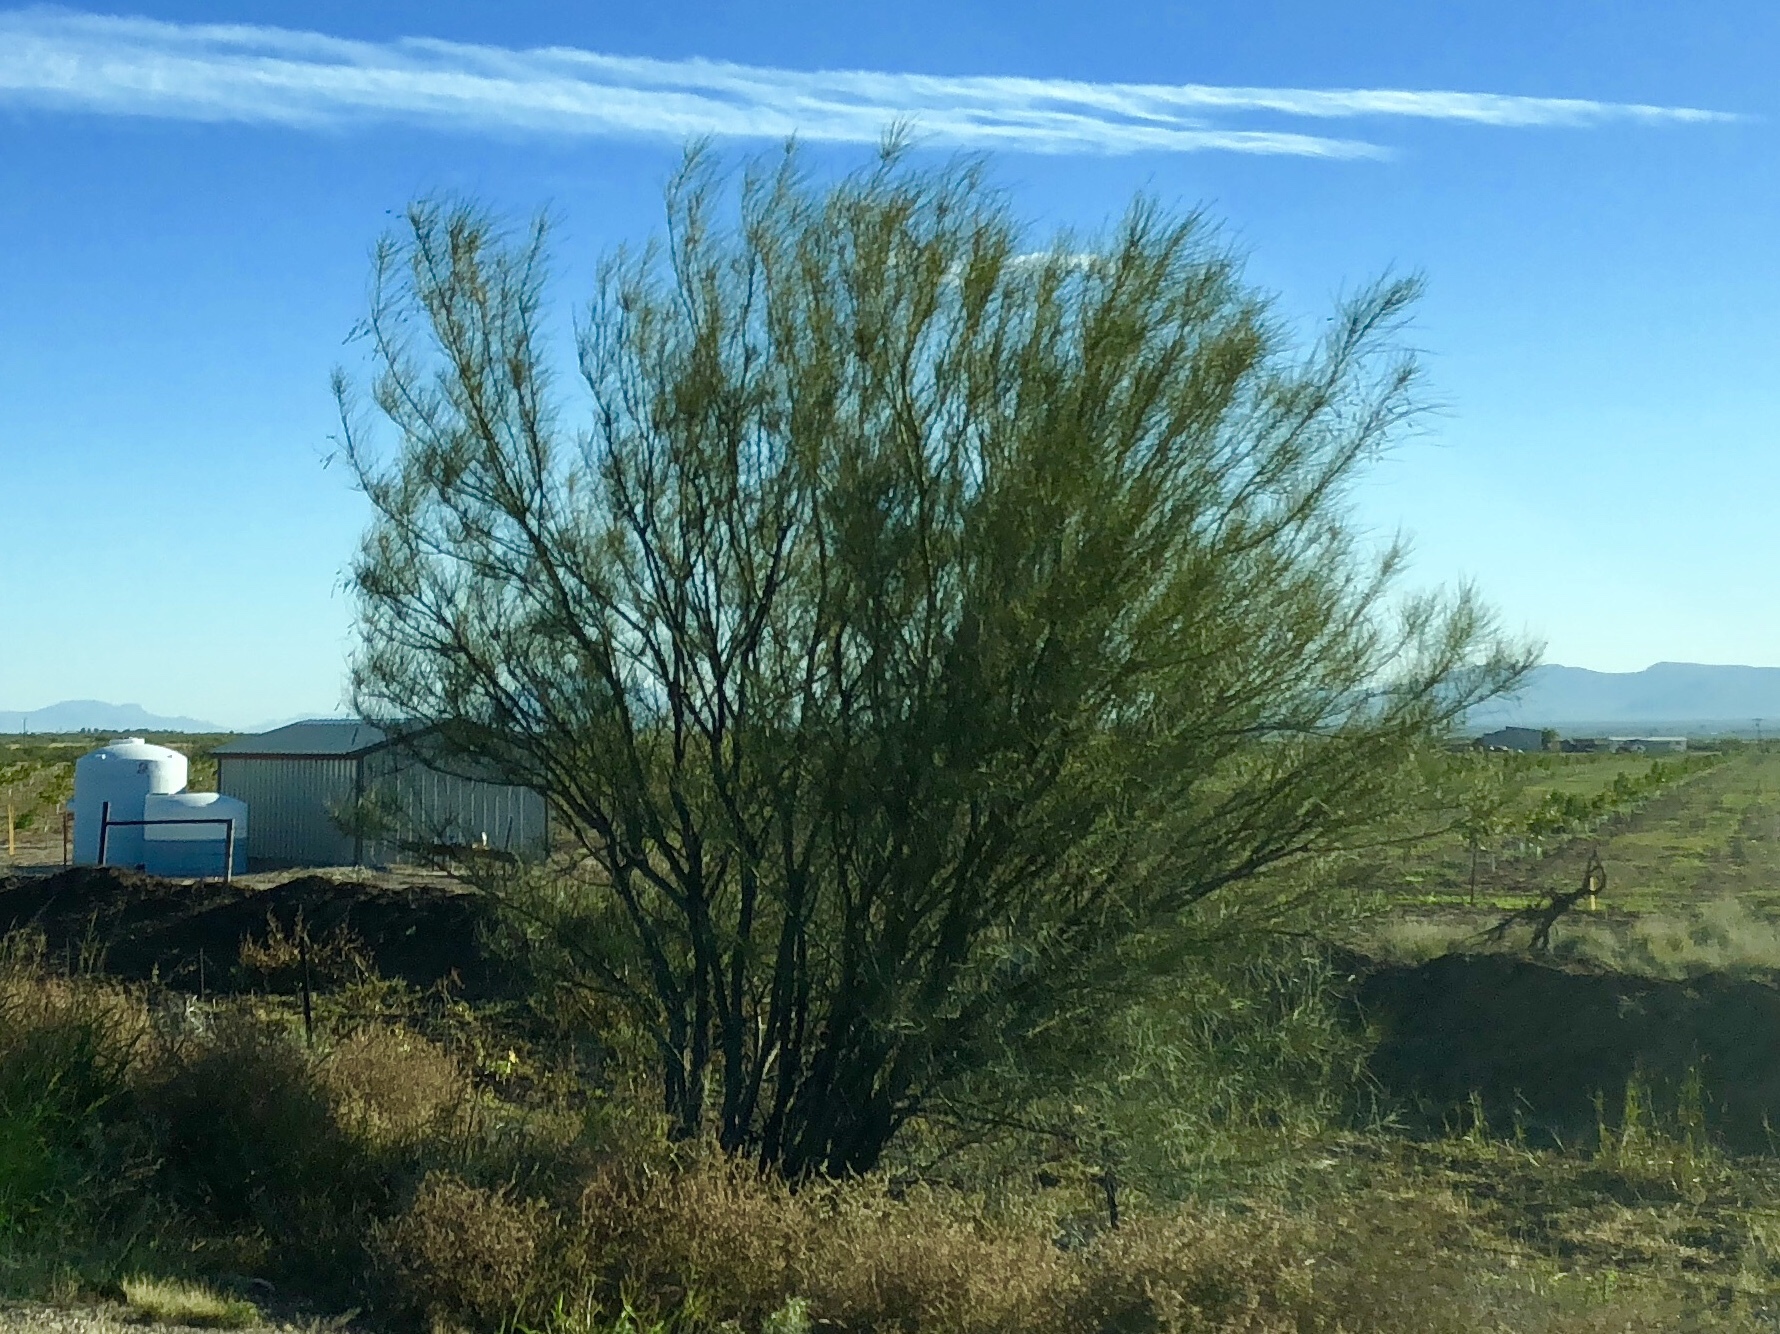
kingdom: Plantae
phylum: Tracheophyta
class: Magnoliopsida
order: Fabales
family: Fabaceae
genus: Parkinsonia
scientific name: Parkinsonia aculeata
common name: Jerusalem thorn
